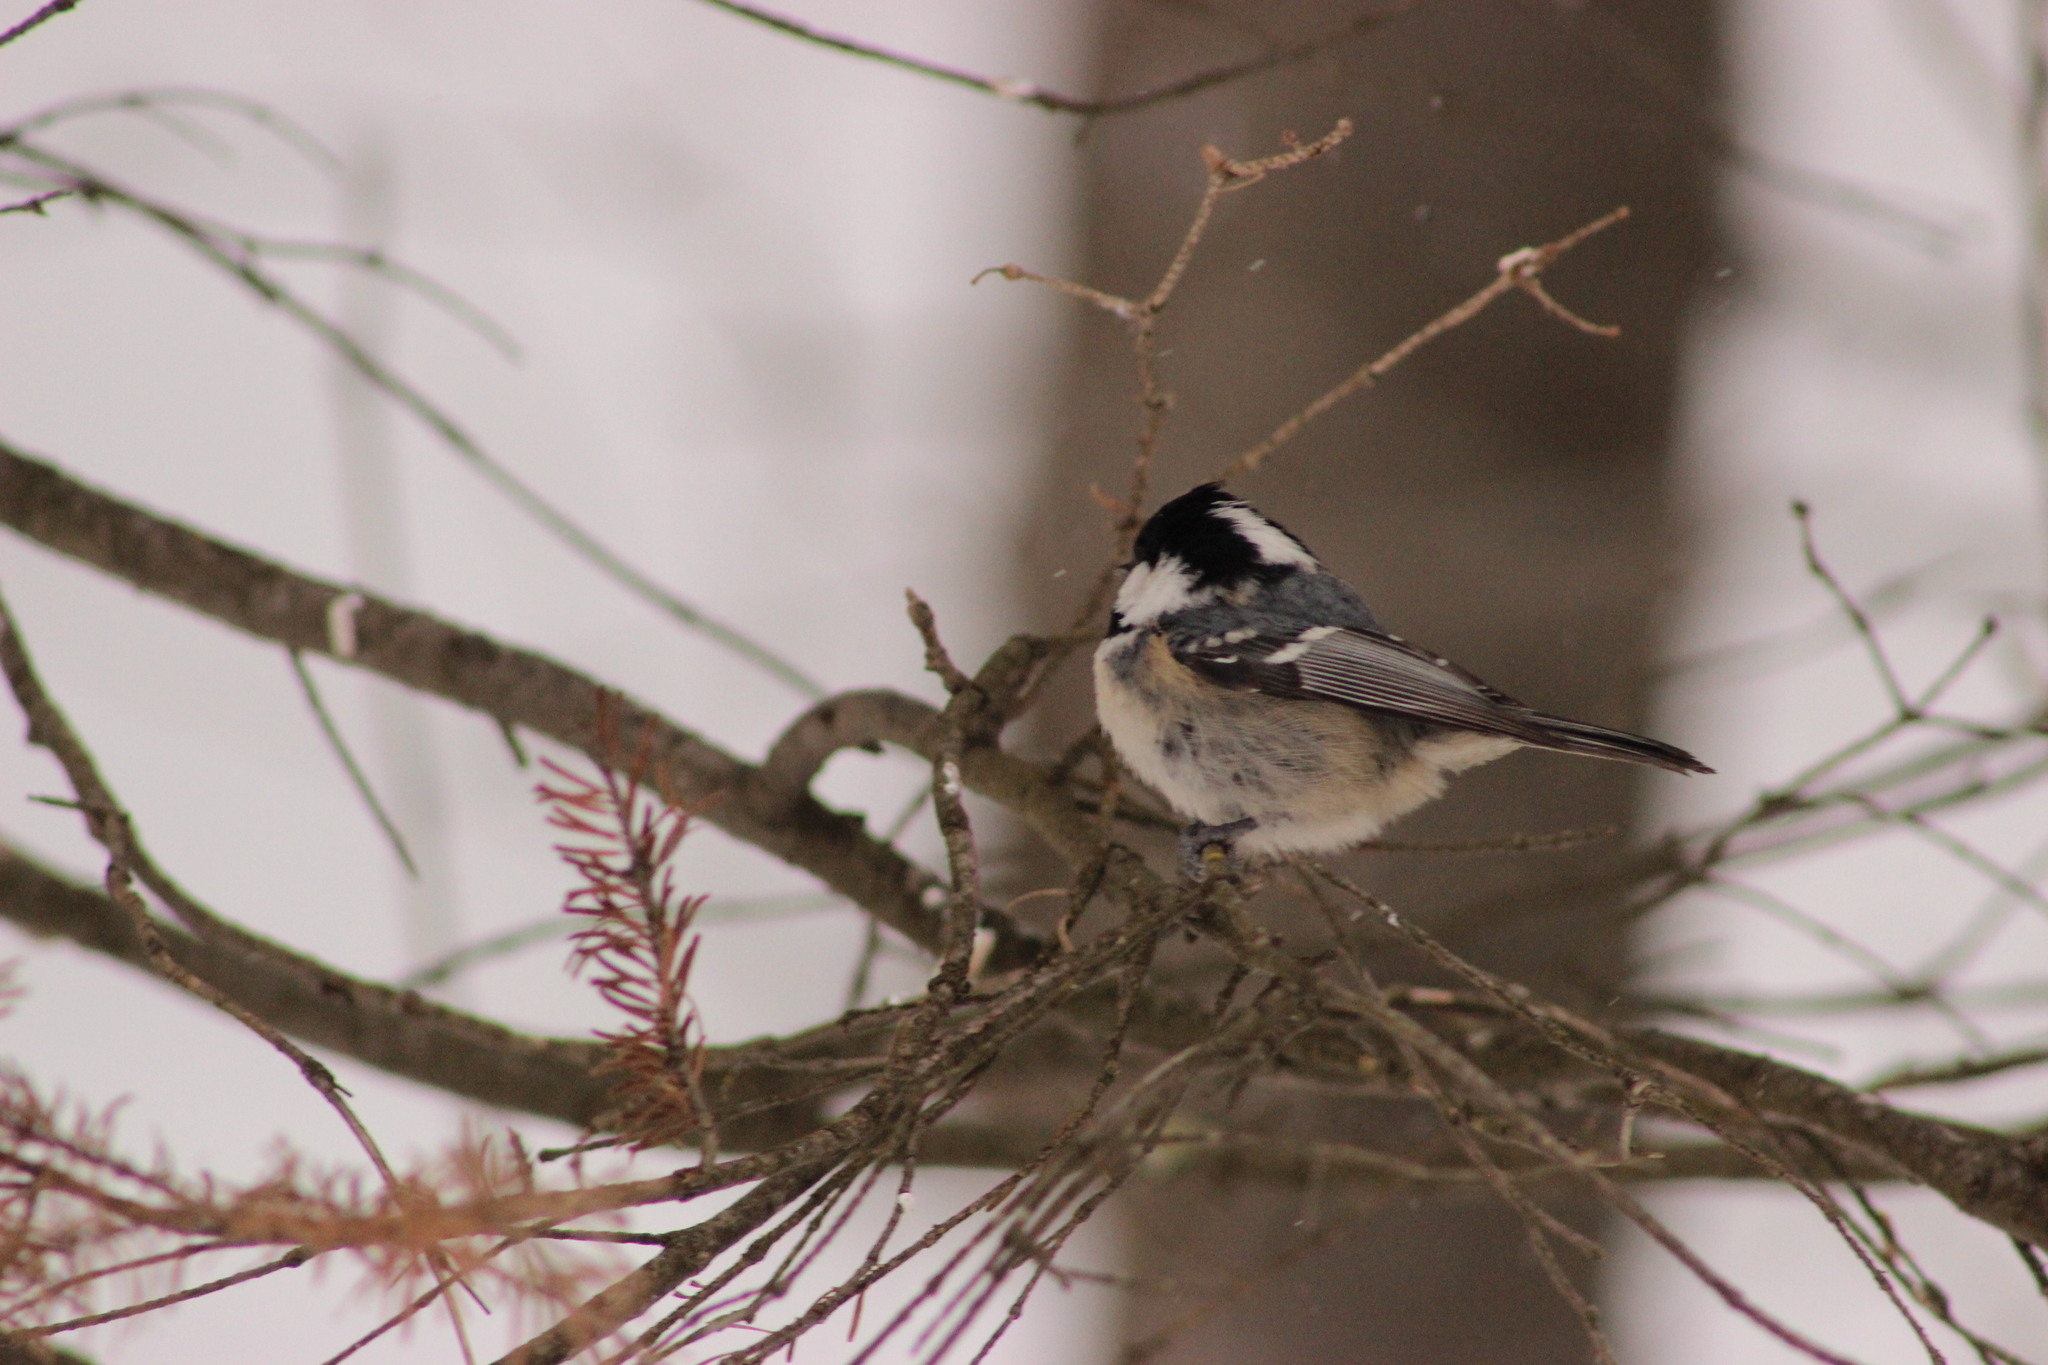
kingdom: Animalia
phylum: Chordata
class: Aves
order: Passeriformes
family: Paridae
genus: Periparus
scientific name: Periparus ater
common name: Coal tit
